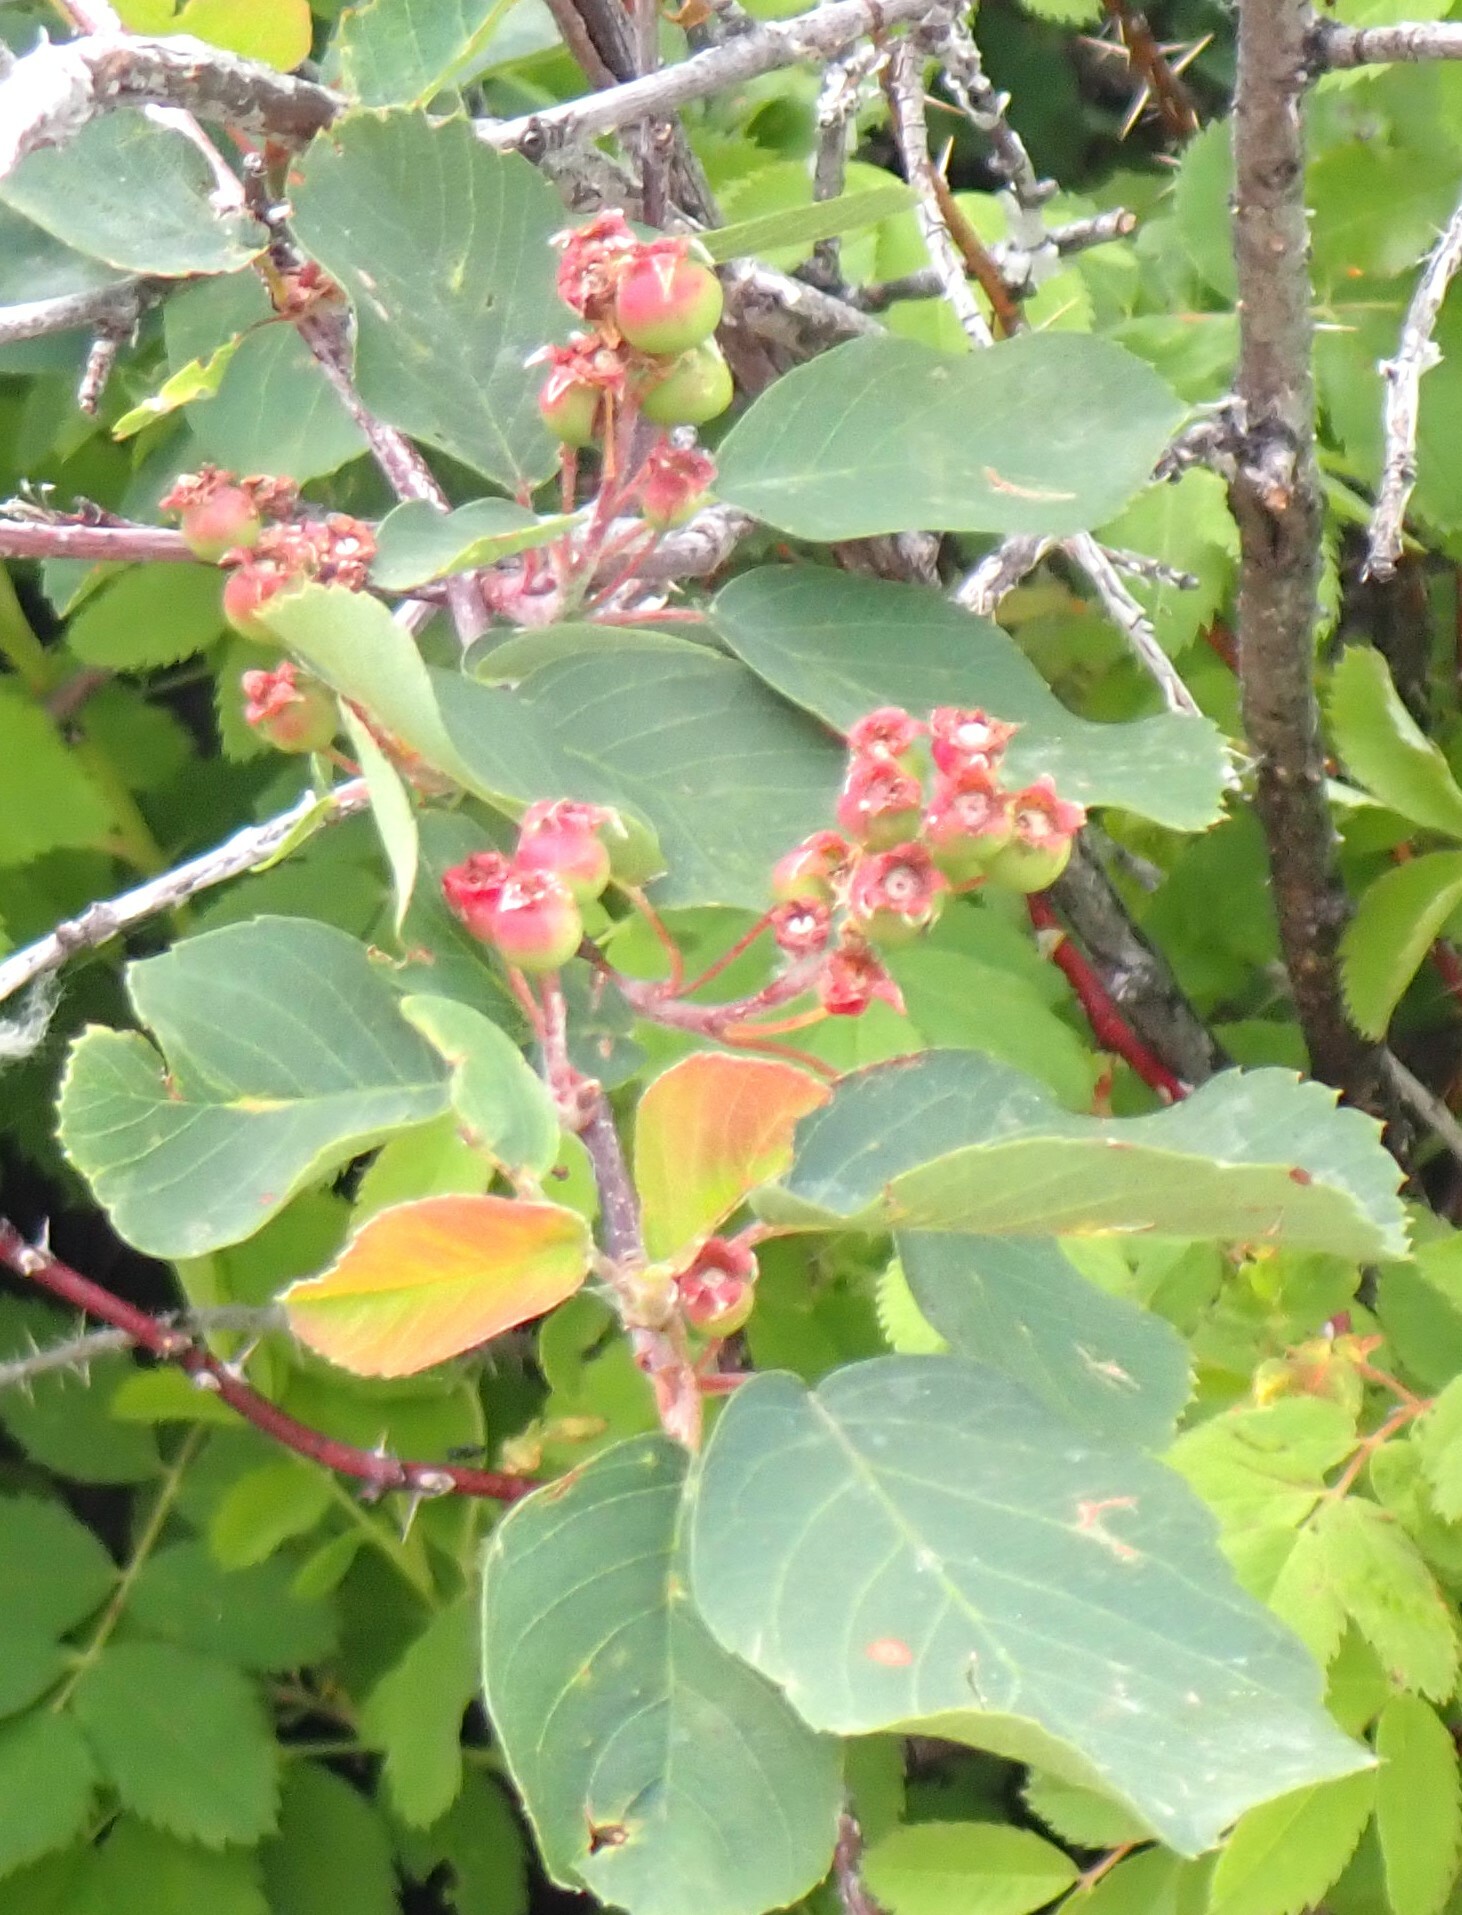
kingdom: Plantae
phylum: Tracheophyta
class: Magnoliopsida
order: Rosales
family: Rosaceae
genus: Amelanchier
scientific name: Amelanchier alnifolia
